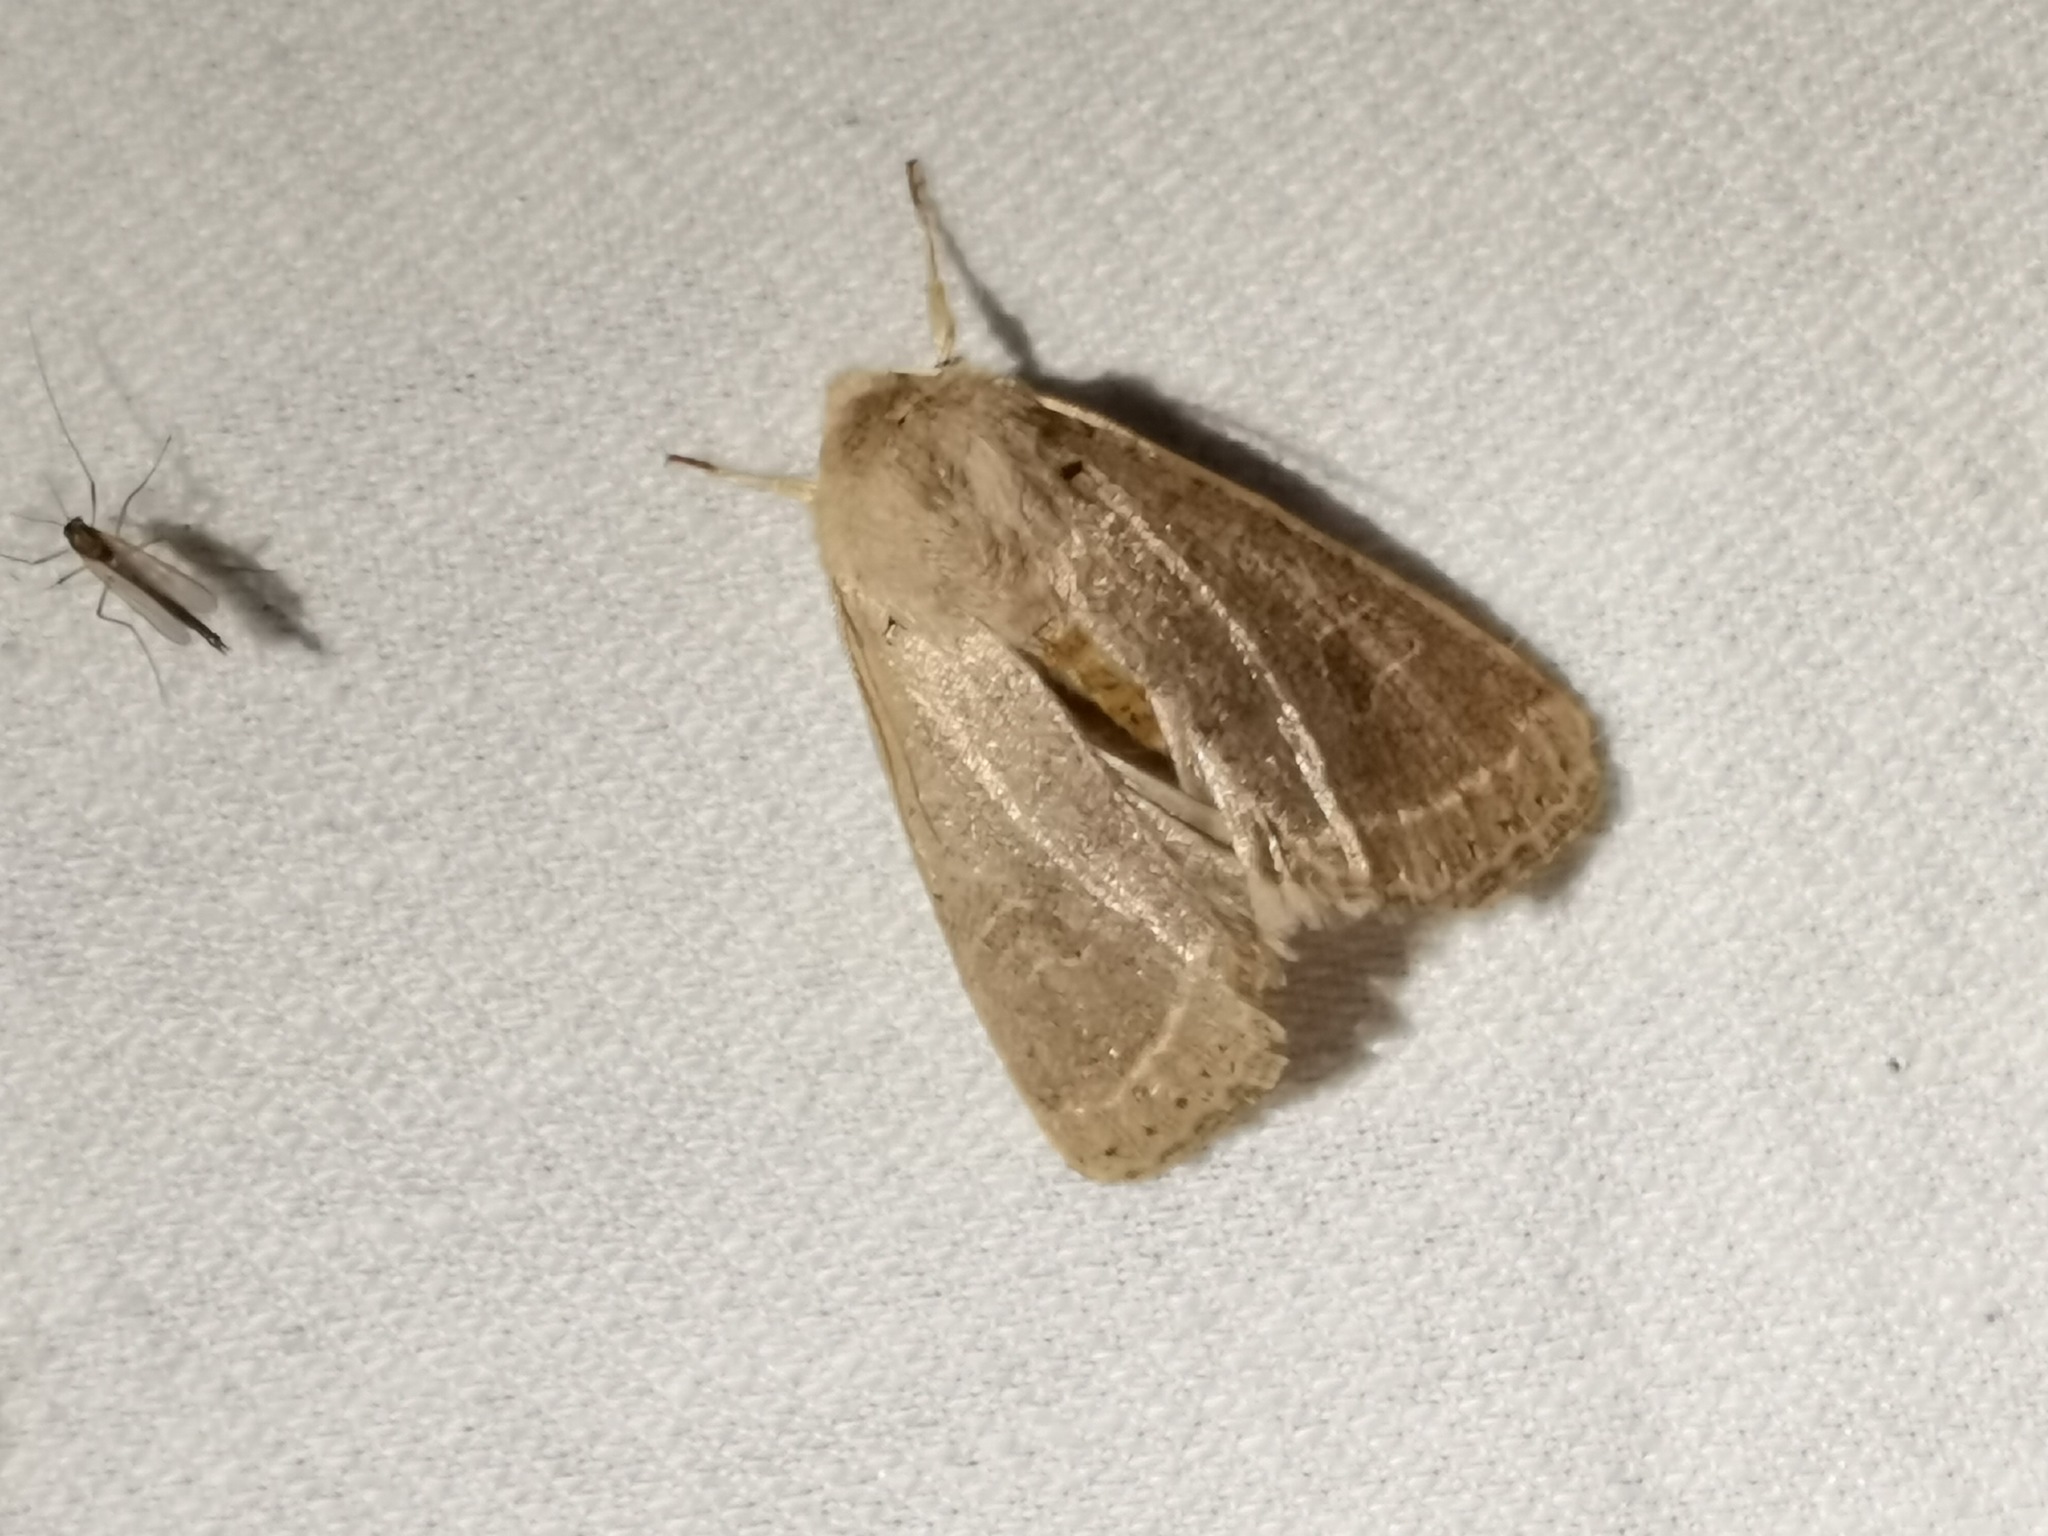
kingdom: Animalia
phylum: Arthropoda
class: Insecta
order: Lepidoptera
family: Noctuidae
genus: Orthosia
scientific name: Orthosia cerasi
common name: Common quaker
